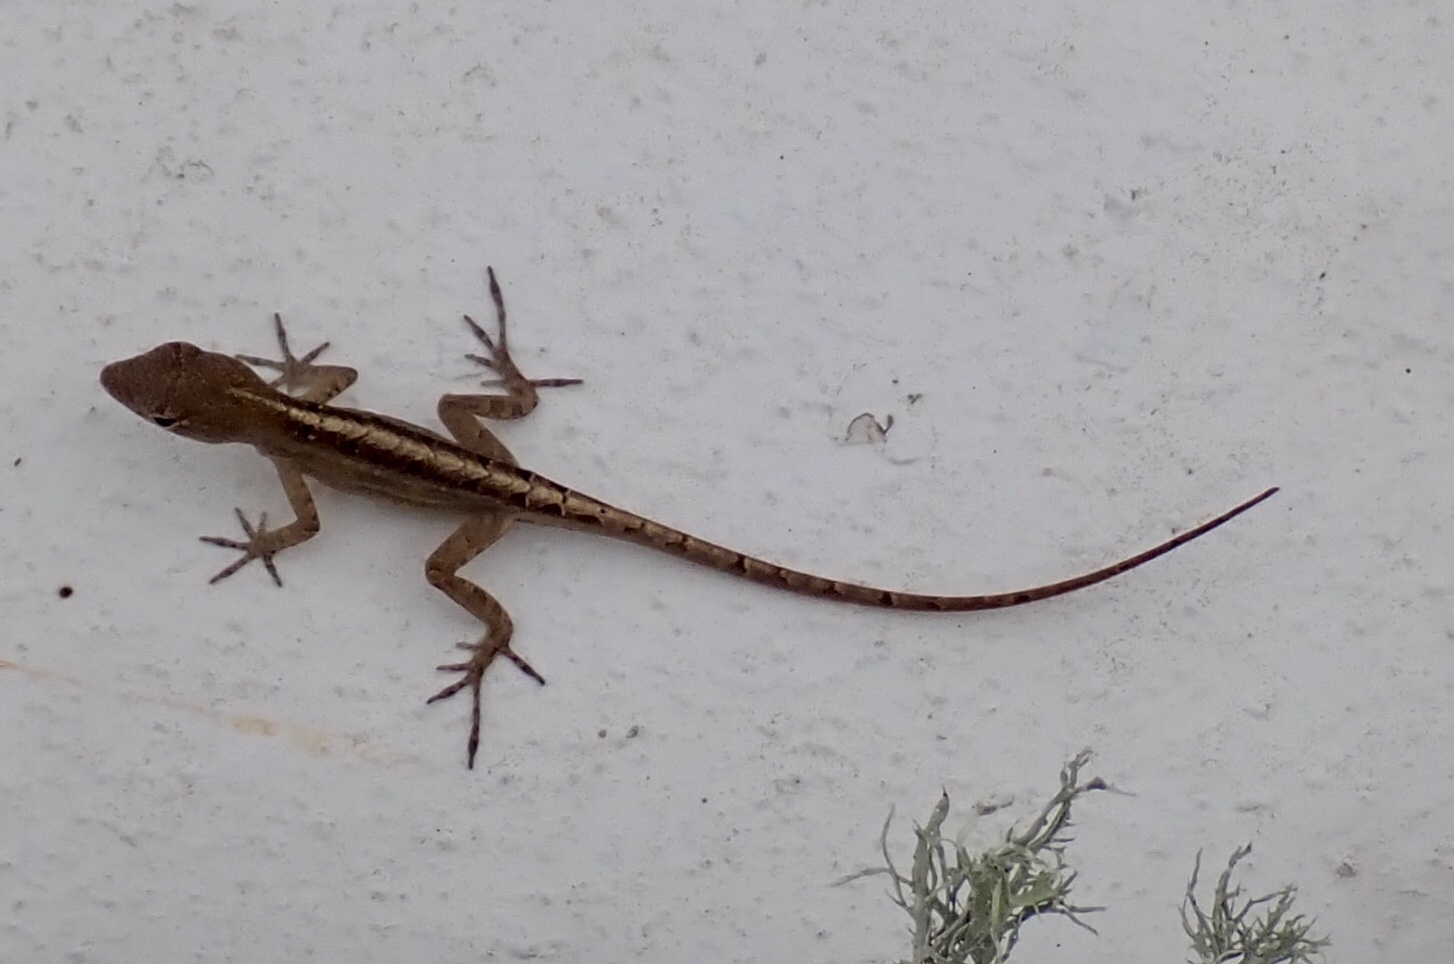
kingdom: Animalia
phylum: Chordata
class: Squamata
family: Dactyloidae
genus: Anolis
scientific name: Anolis sagrei
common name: Brown anole
